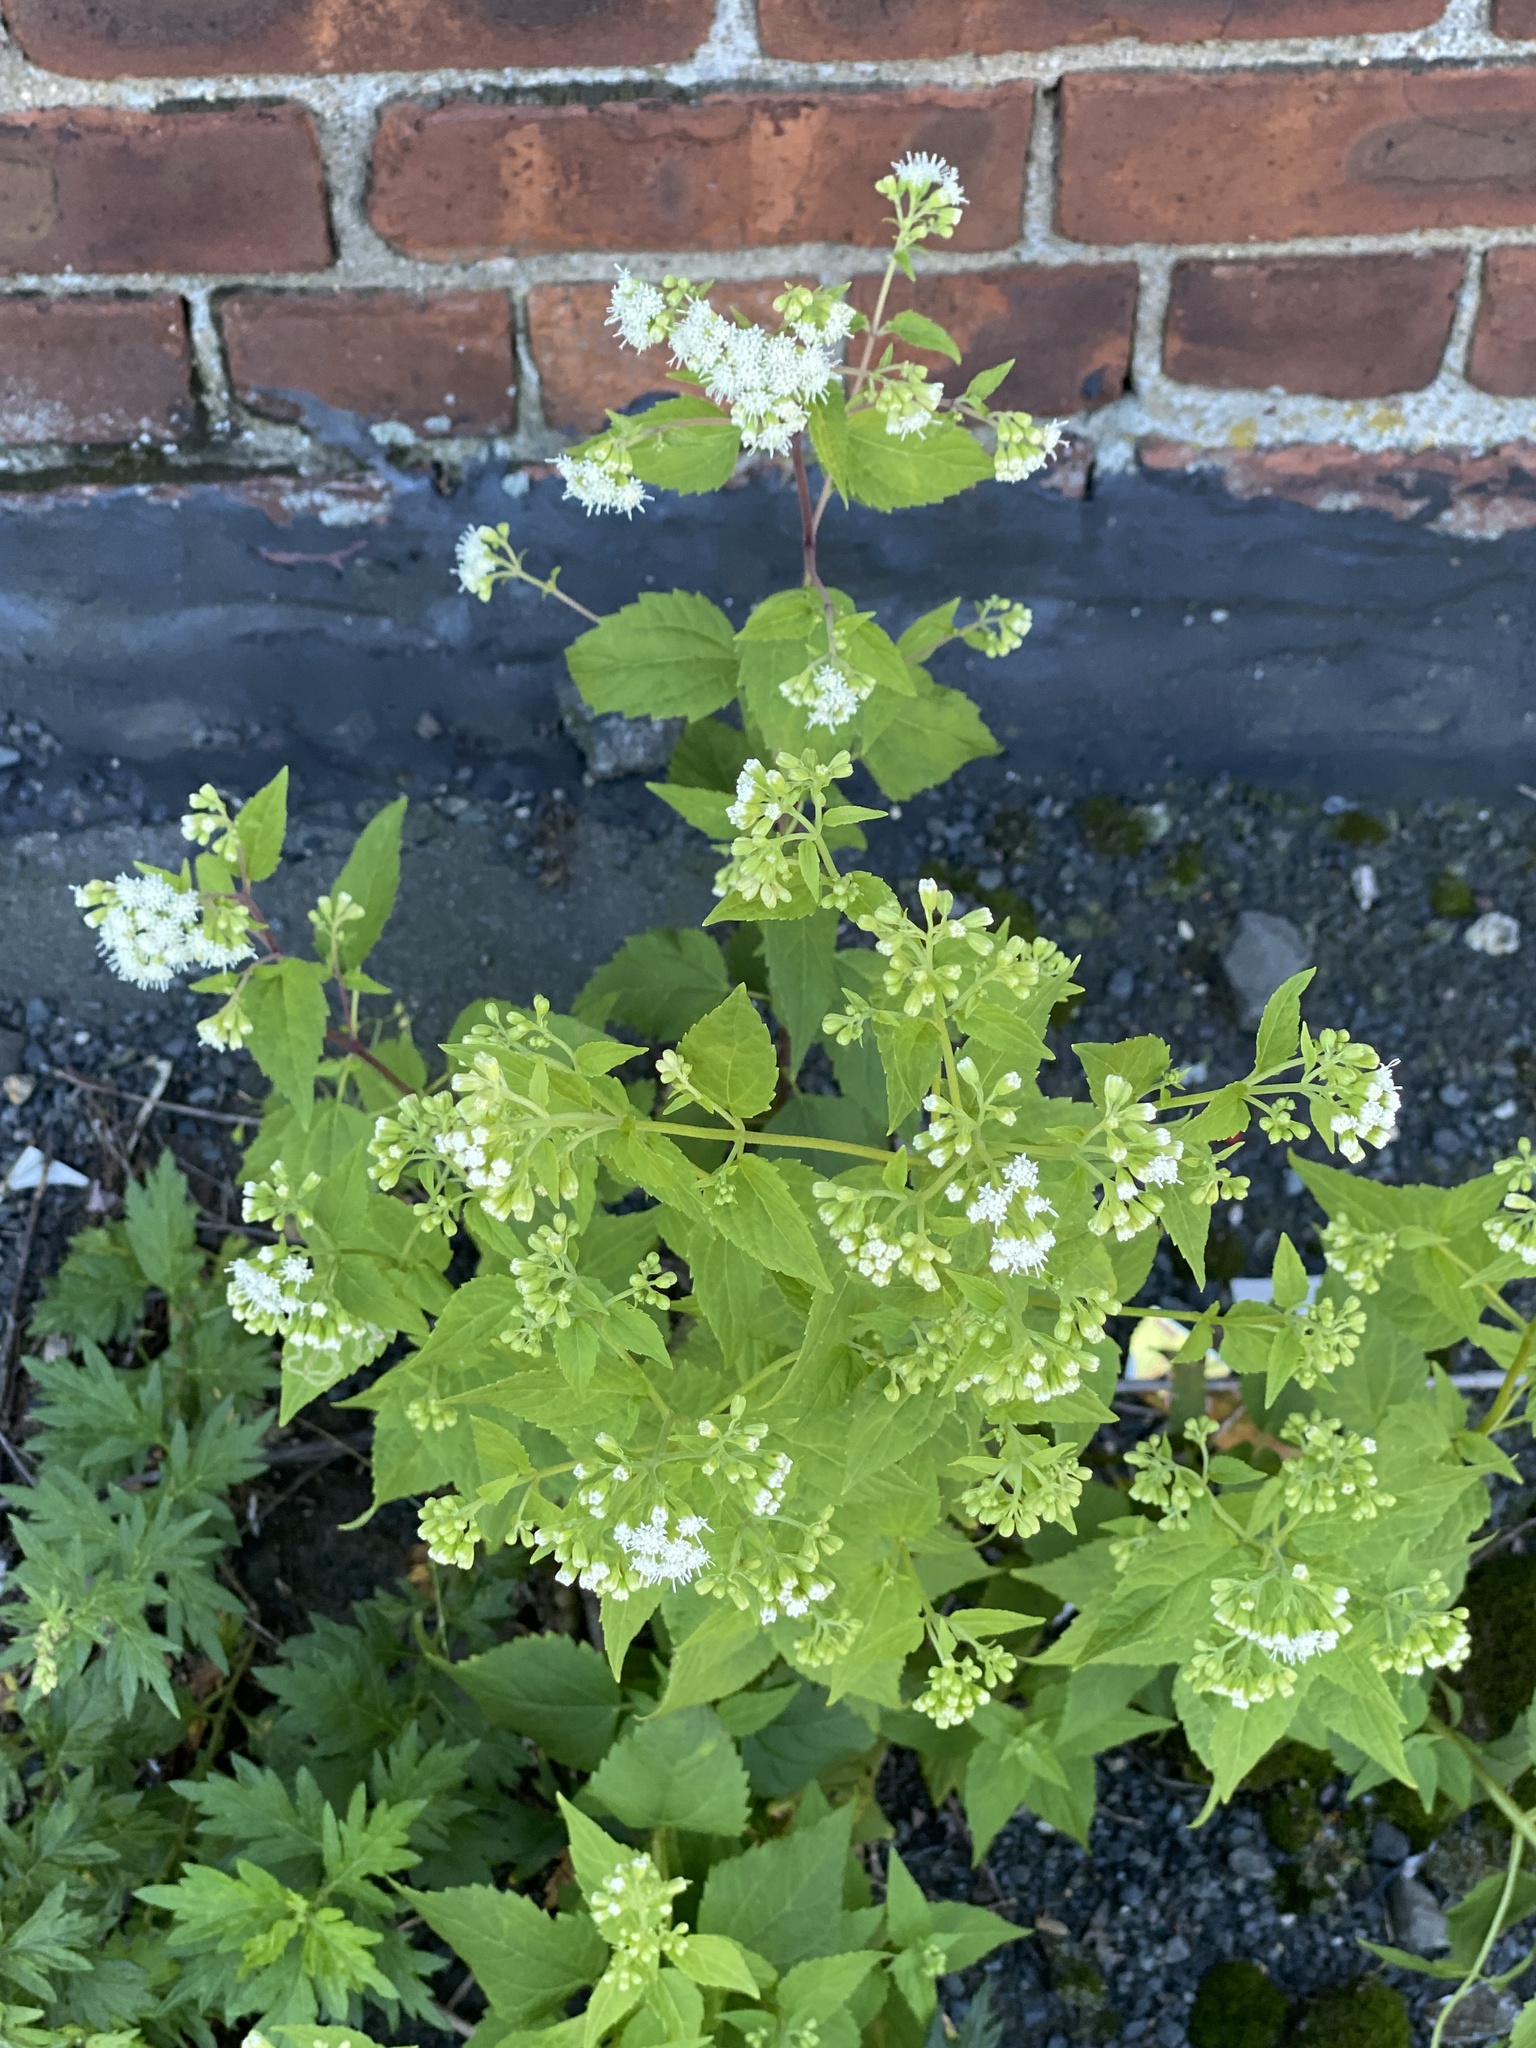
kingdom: Plantae
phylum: Tracheophyta
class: Magnoliopsida
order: Asterales
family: Asteraceae
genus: Ageratina
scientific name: Ageratina altissima
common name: White snakeroot
